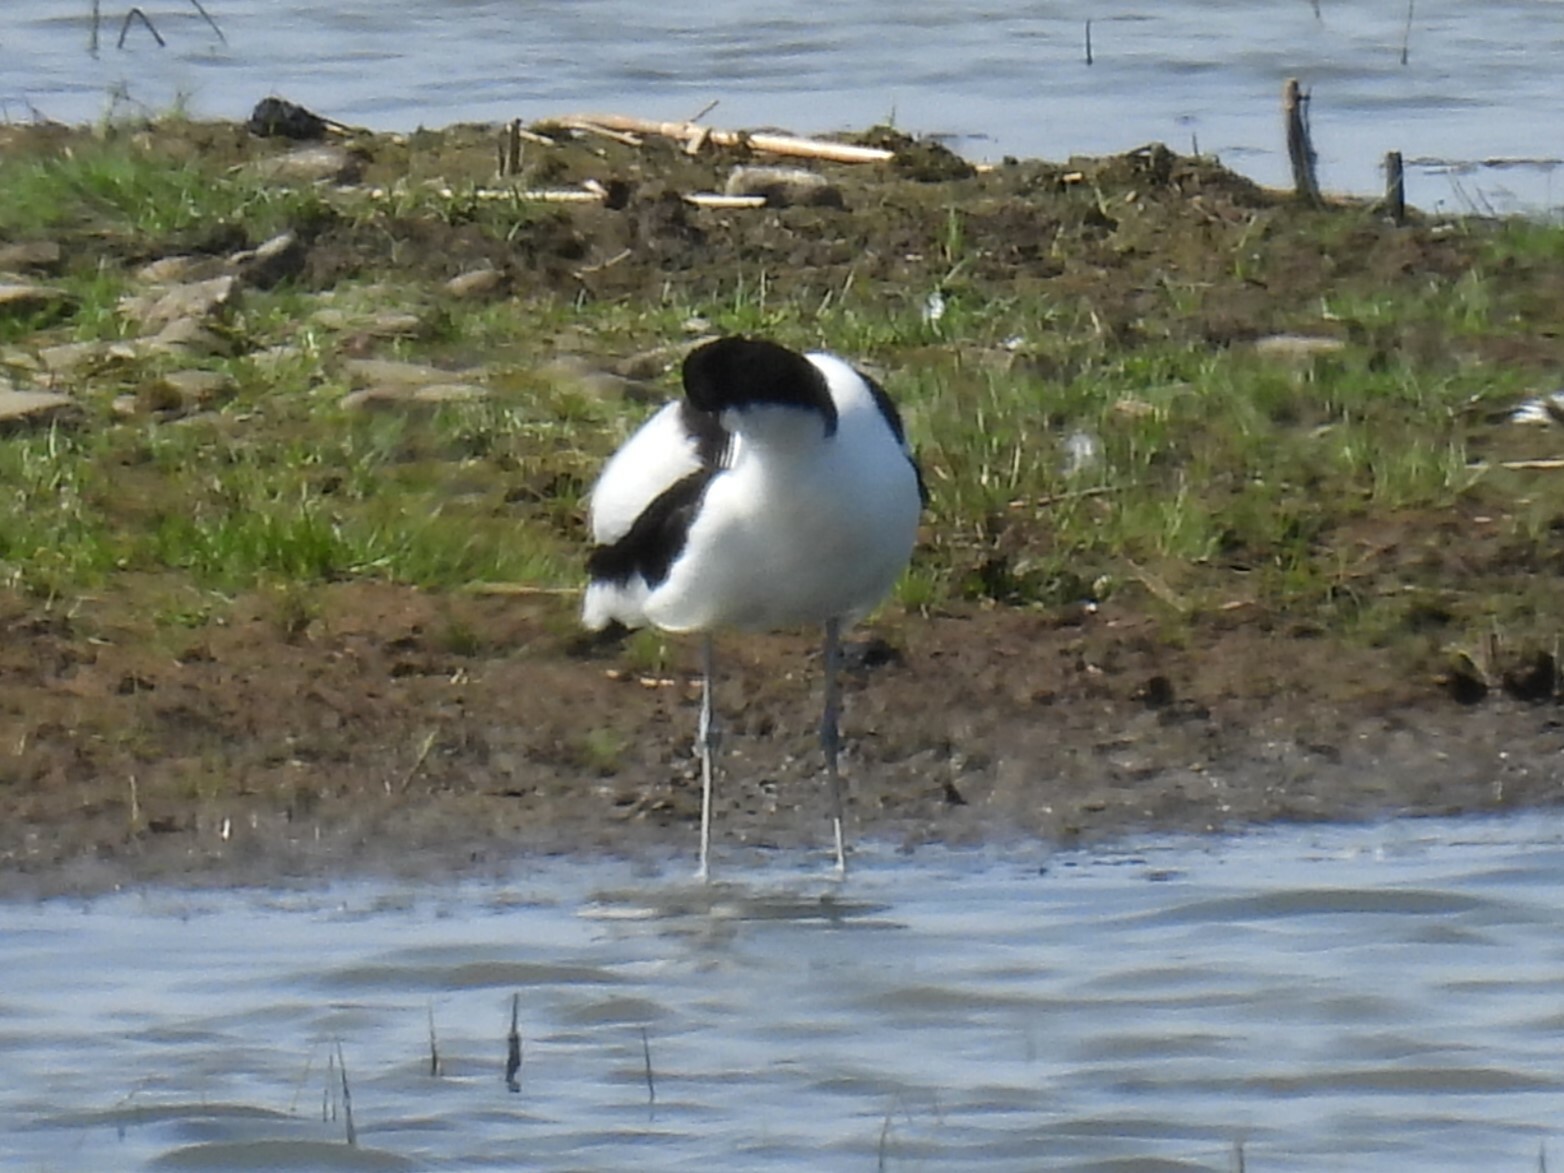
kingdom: Animalia
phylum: Chordata
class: Aves
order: Charadriiformes
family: Recurvirostridae
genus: Recurvirostra
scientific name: Recurvirostra avosetta
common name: Pied avocet
